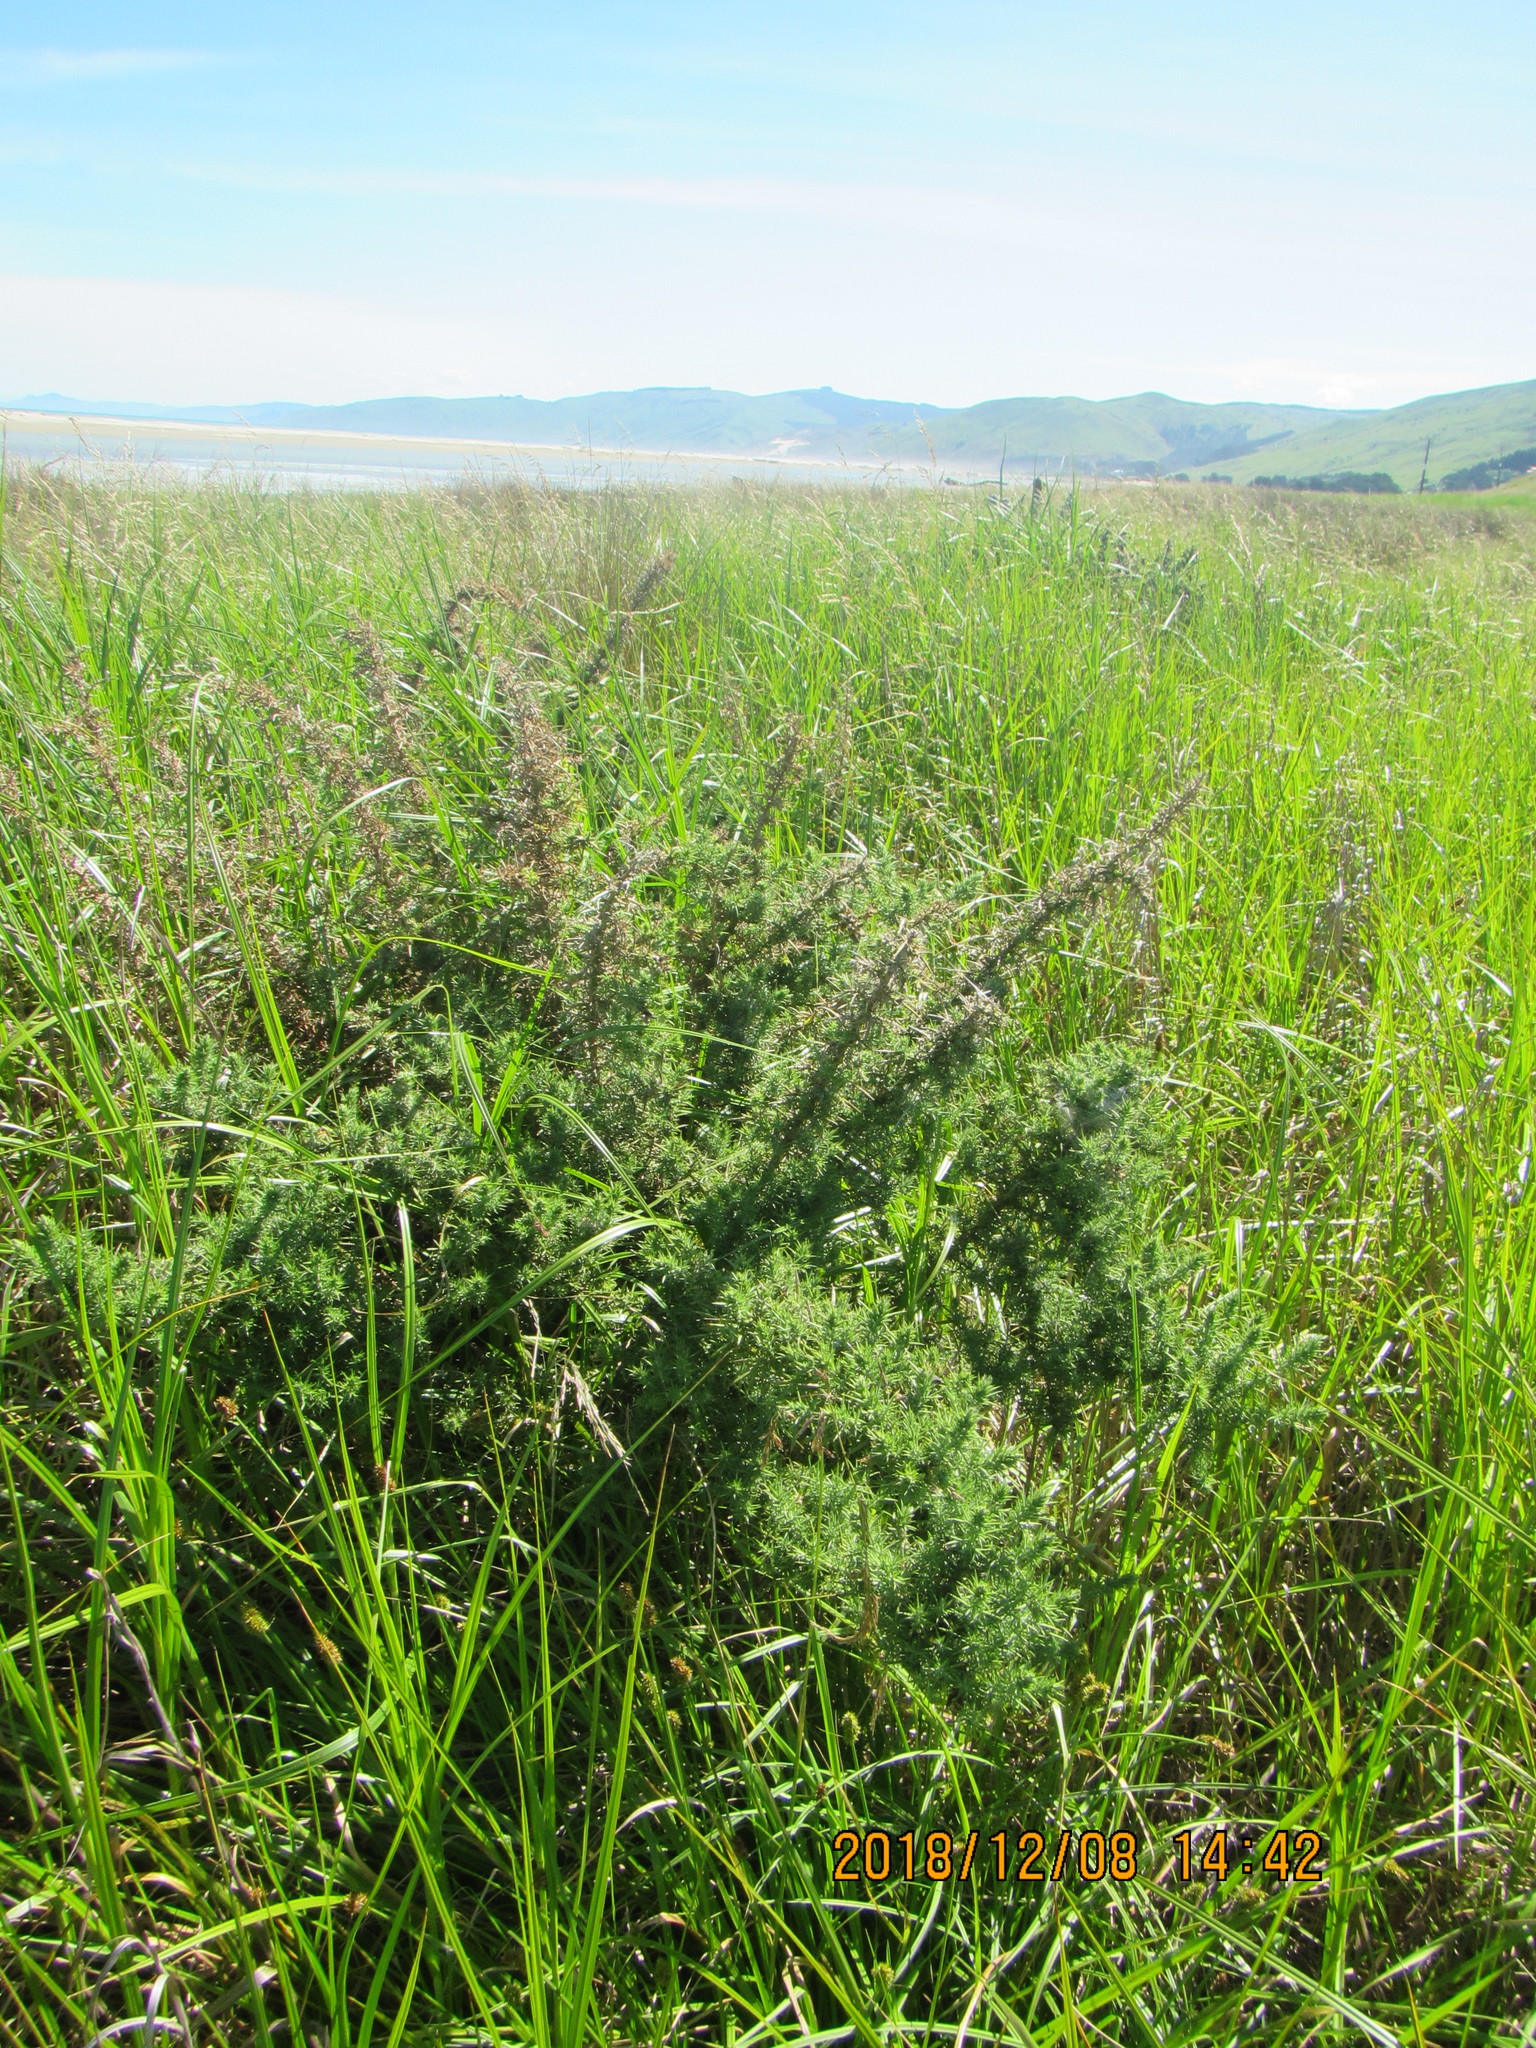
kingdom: Plantae
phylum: Tracheophyta
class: Magnoliopsida
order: Fabales
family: Fabaceae
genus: Ulex
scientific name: Ulex europaeus
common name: Common gorse
